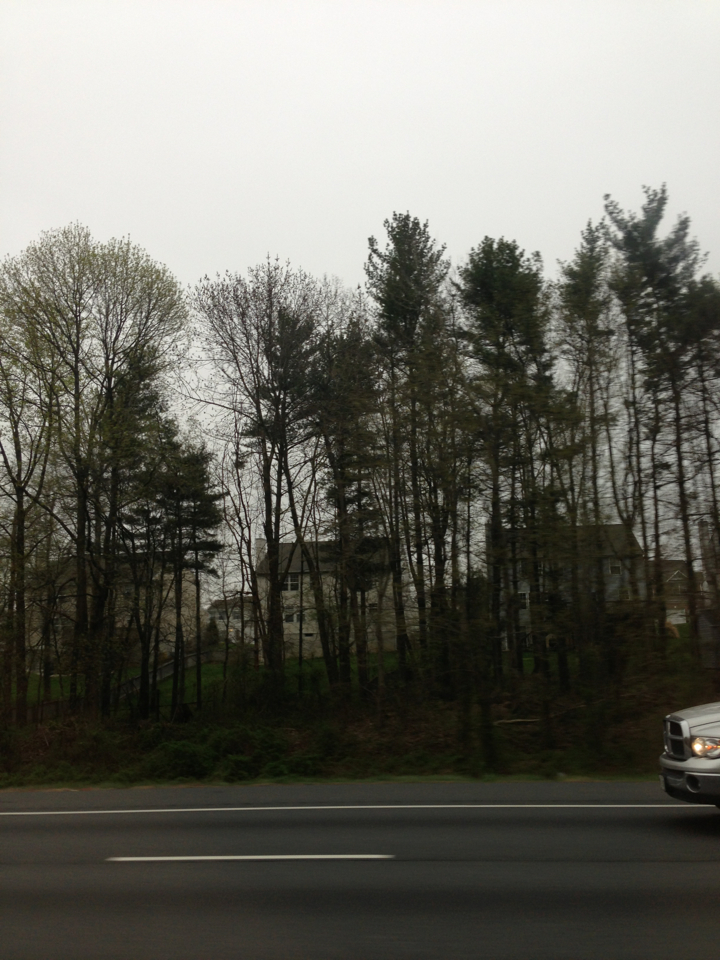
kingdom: Plantae
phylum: Tracheophyta
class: Pinopsida
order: Pinales
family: Pinaceae
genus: Pinus
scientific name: Pinus strobus
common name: Weymouth pine
